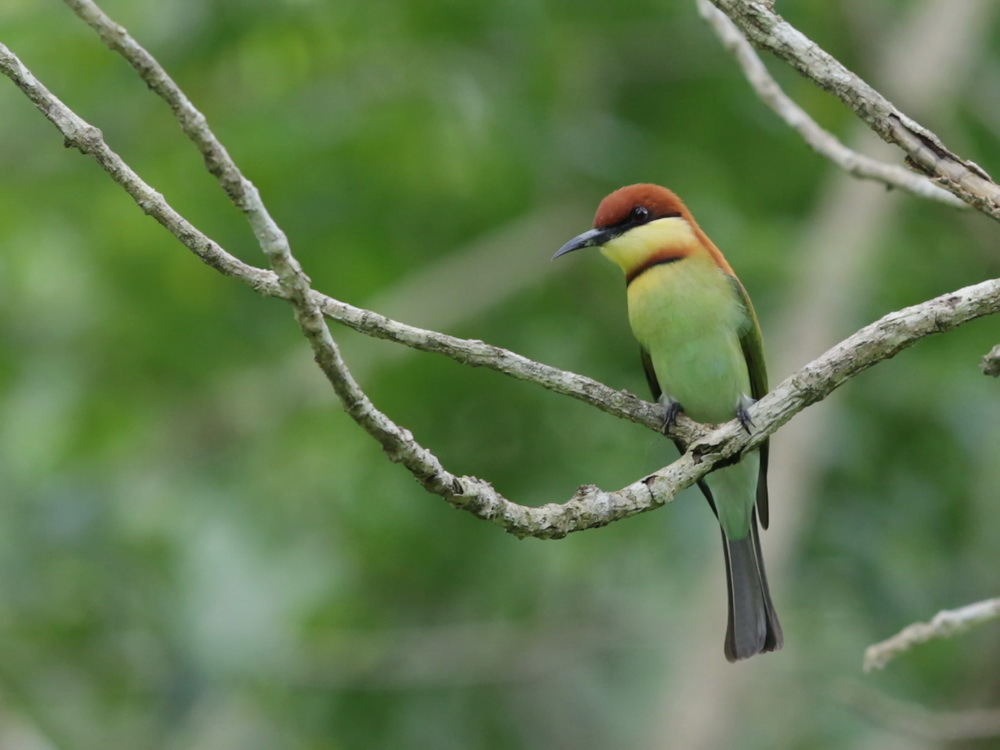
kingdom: Animalia
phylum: Chordata
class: Aves
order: Coraciiformes
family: Meropidae
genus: Merops
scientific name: Merops leschenaulti
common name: Chestnut-headed bee-eater
